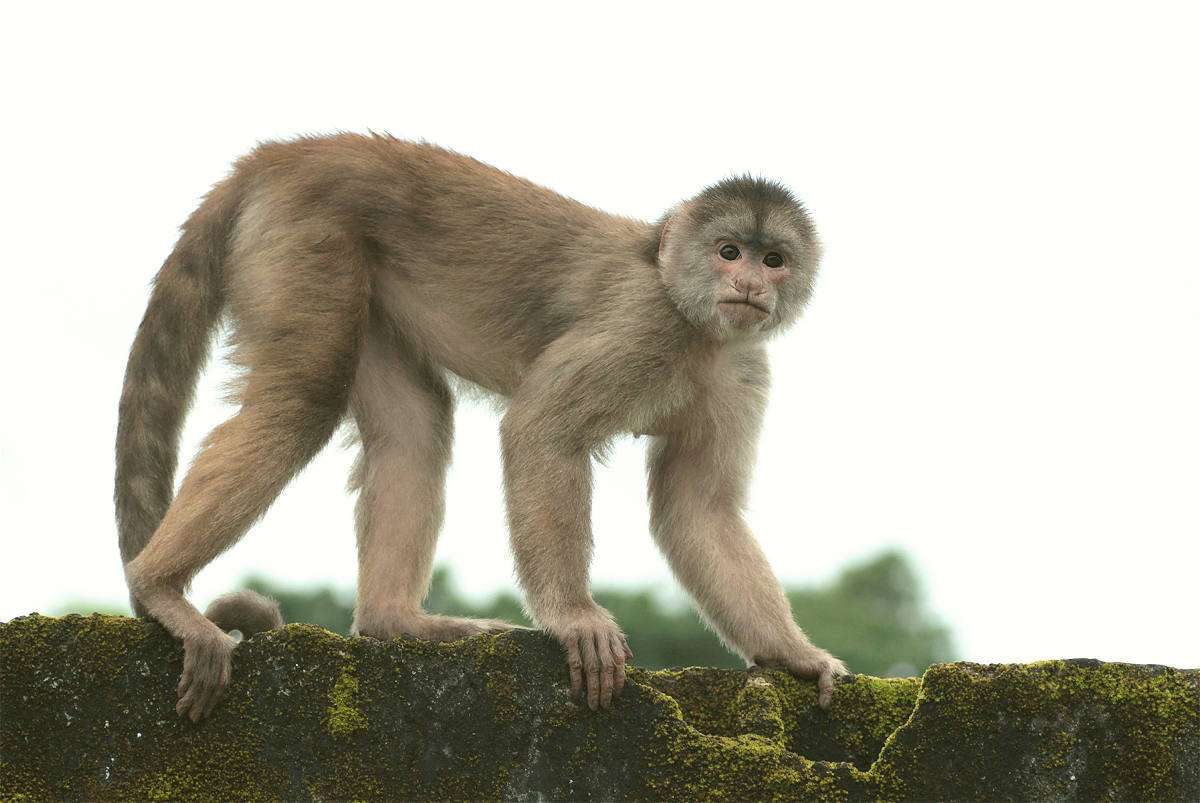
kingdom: Animalia
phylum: Chordata
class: Mammalia
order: Primates
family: Cebidae
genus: Cebus
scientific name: Cebus yuracus
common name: Peruvian white-fronted capuchin
